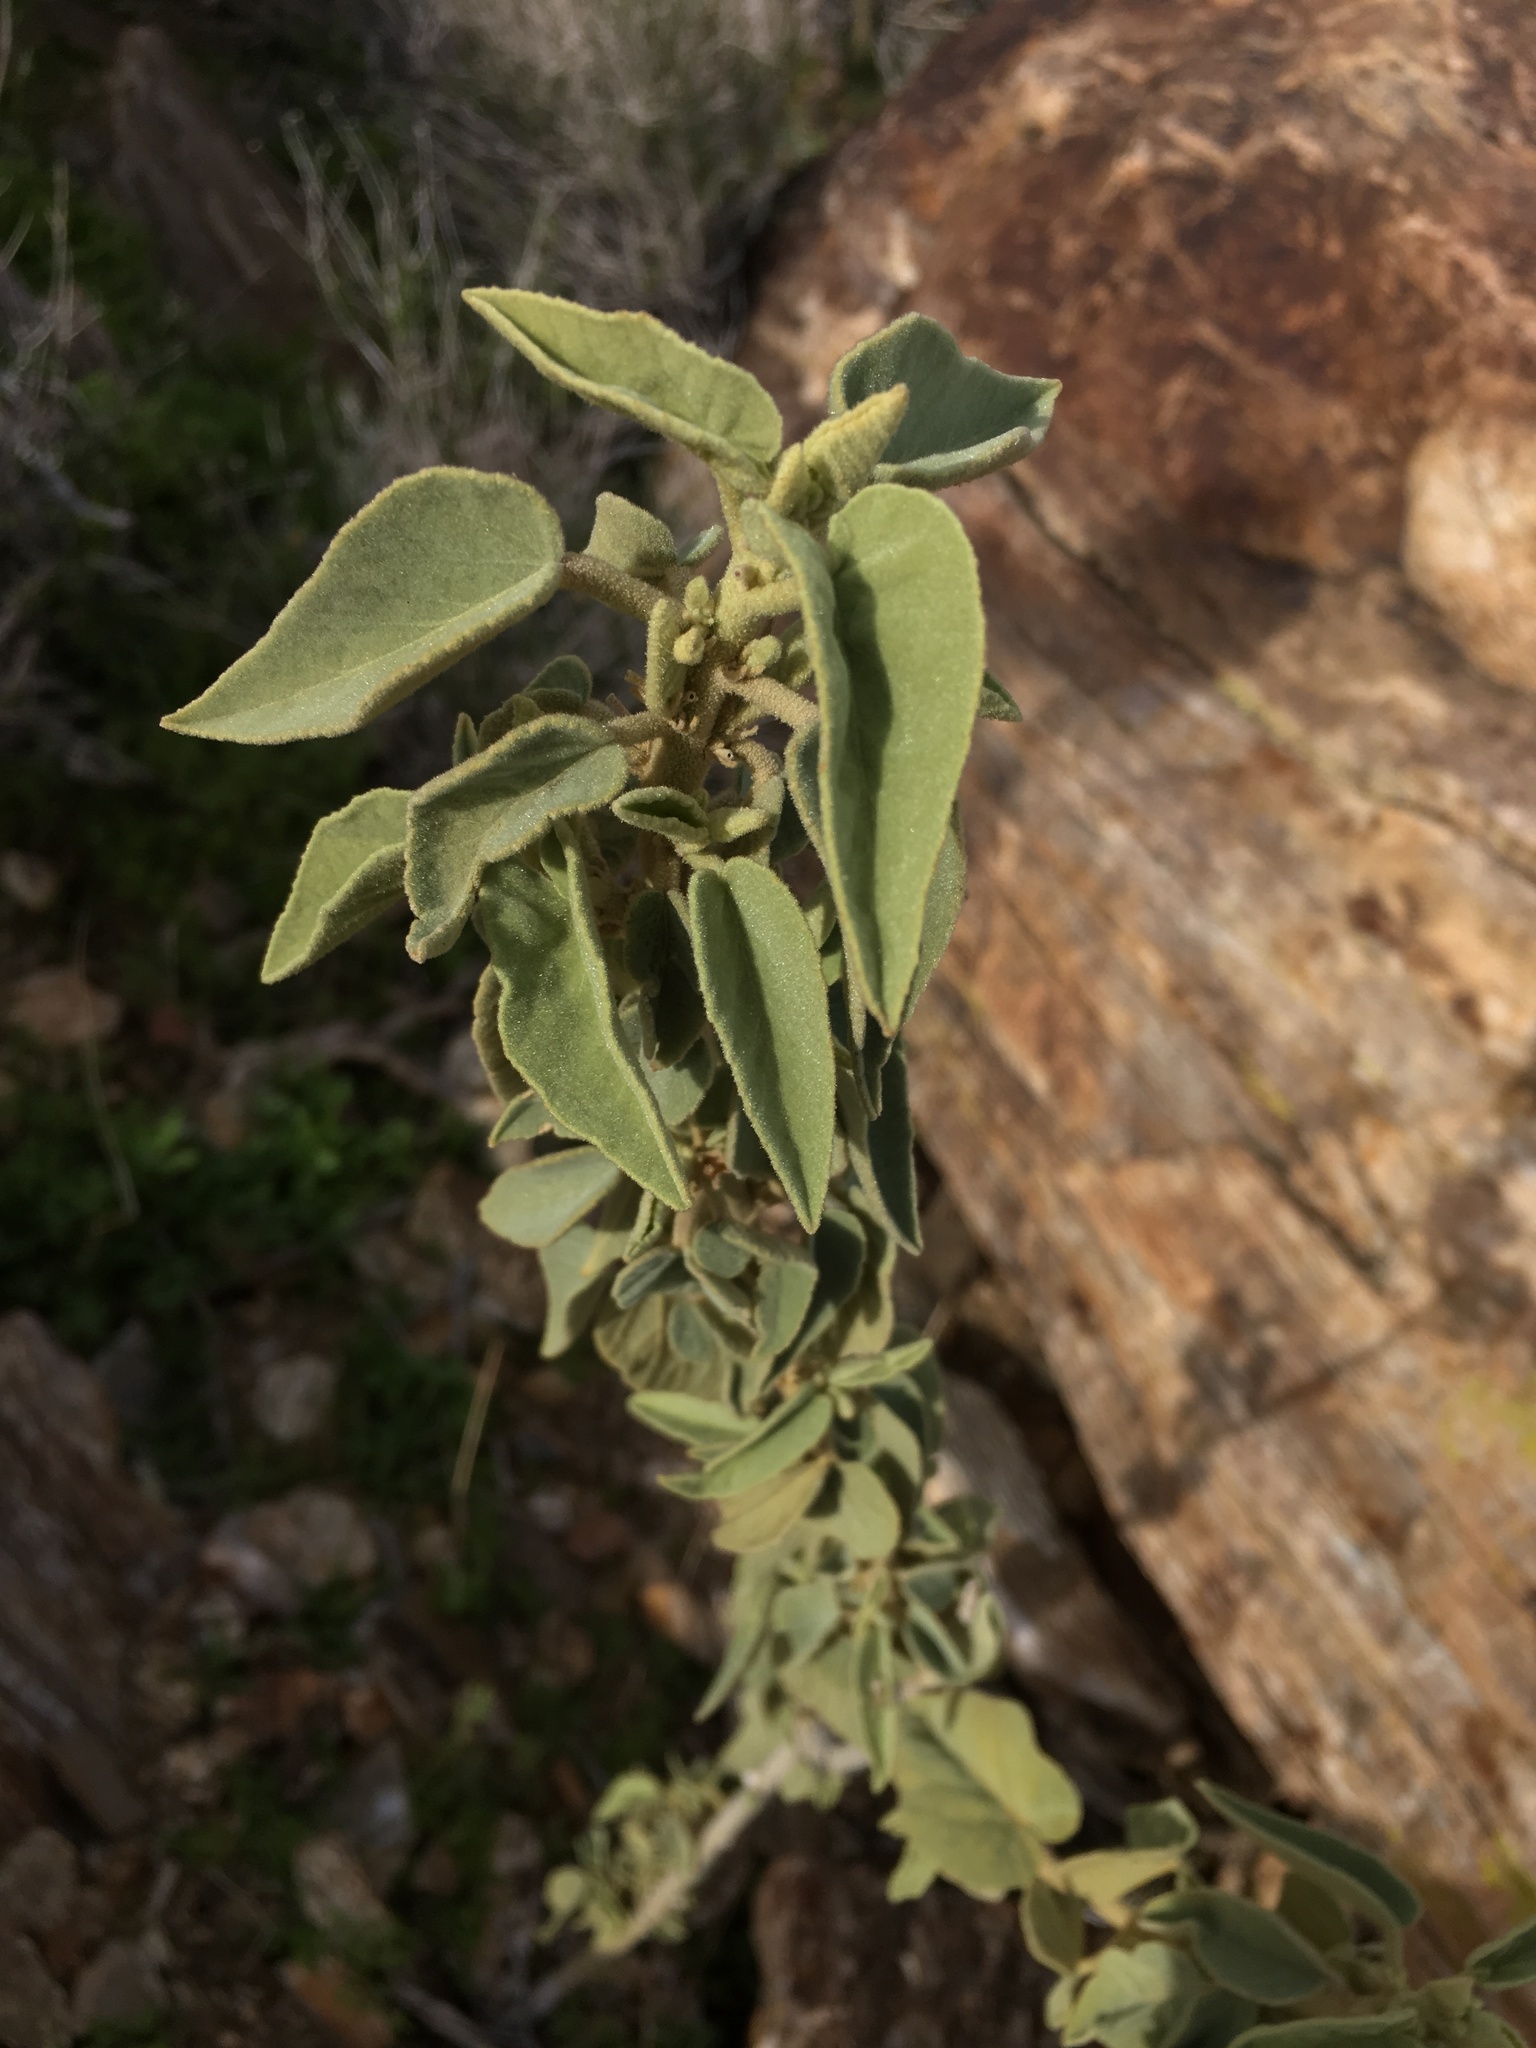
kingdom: Plantae
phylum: Tracheophyta
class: Magnoliopsida
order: Malvales
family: Malvaceae
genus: Horsfordia
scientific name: Horsfordia newberryi
